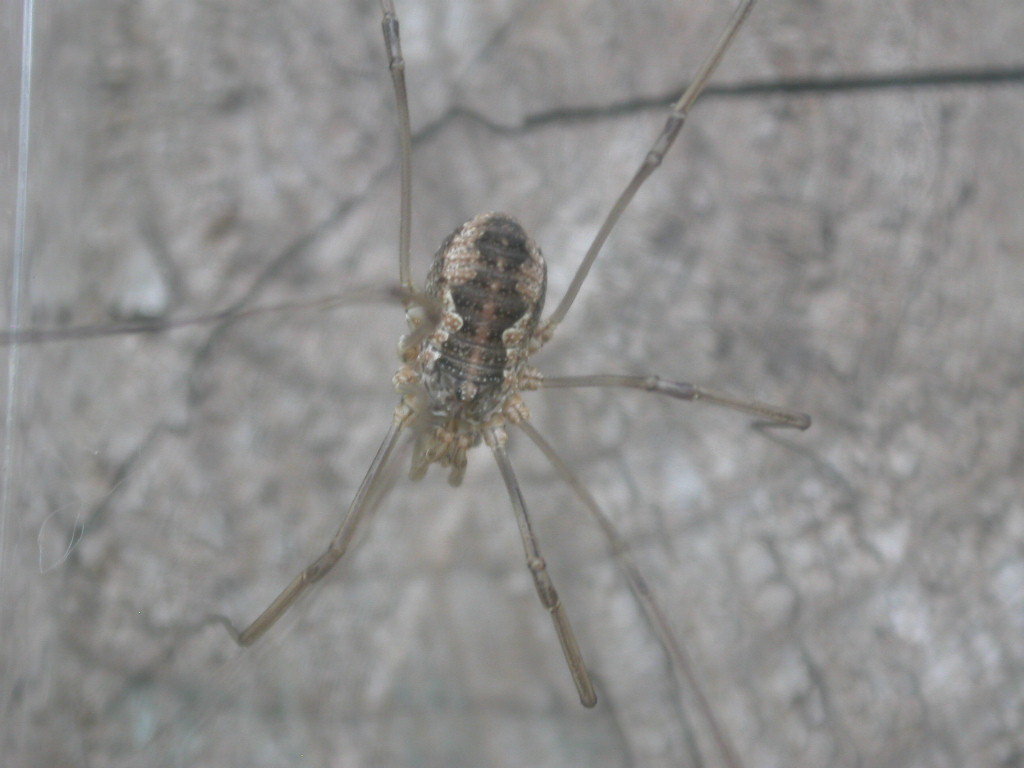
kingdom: Animalia
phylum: Arthropoda
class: Arachnida
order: Opiliones
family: Phalangiidae
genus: Phalangium
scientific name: Phalangium opilio
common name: Daddy longleg
